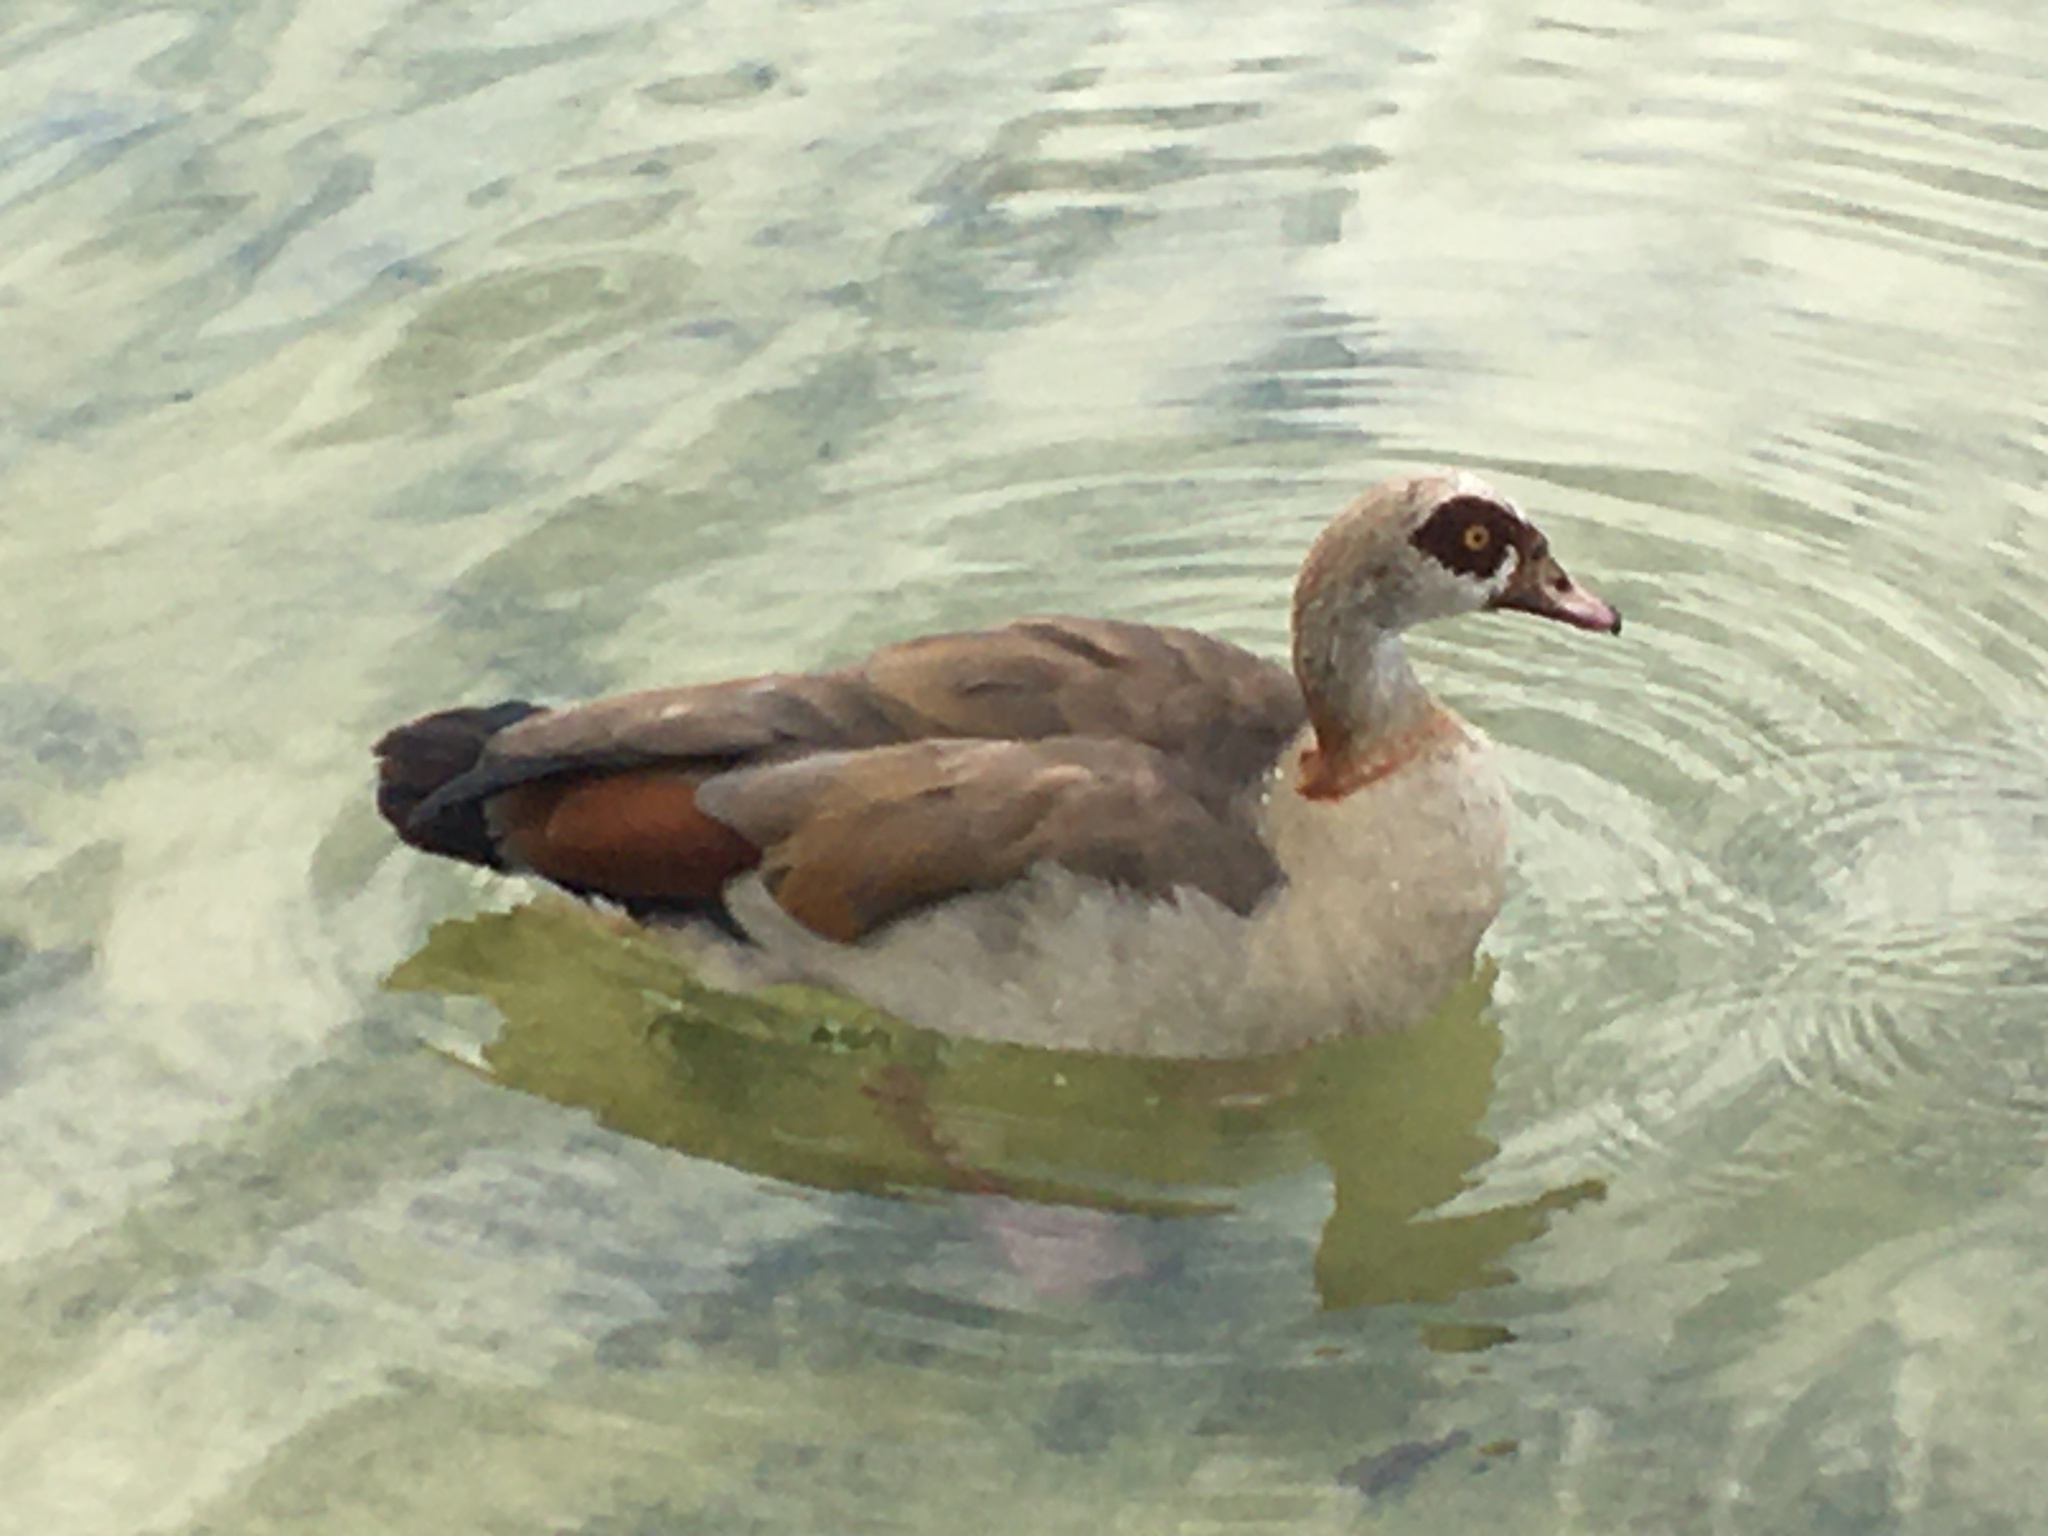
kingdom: Animalia
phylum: Chordata
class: Aves
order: Anseriformes
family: Anatidae
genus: Alopochen
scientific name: Alopochen aegyptiaca
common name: Egyptian goose
